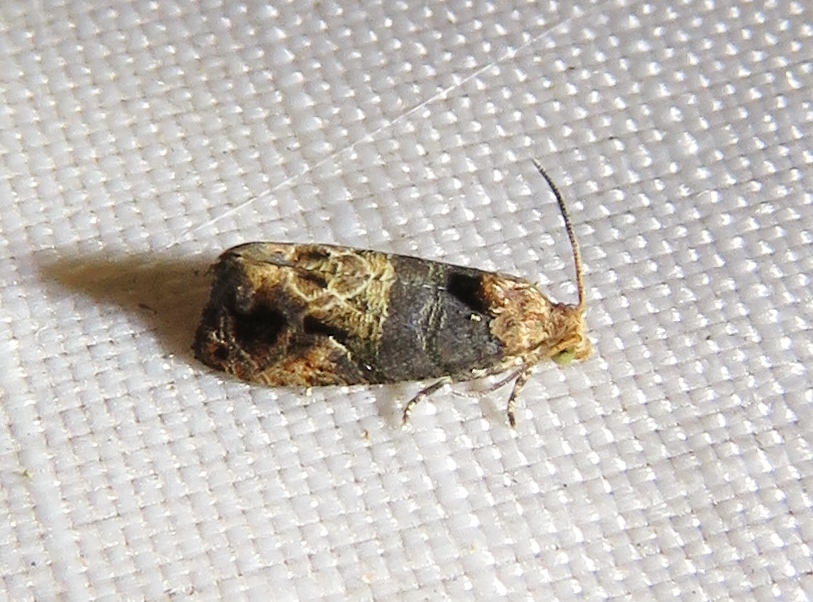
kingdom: Animalia
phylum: Arthropoda
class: Insecta
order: Lepidoptera
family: Tortricidae
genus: Paralobesia
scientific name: Paralobesia viteana
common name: Grape berry moth
